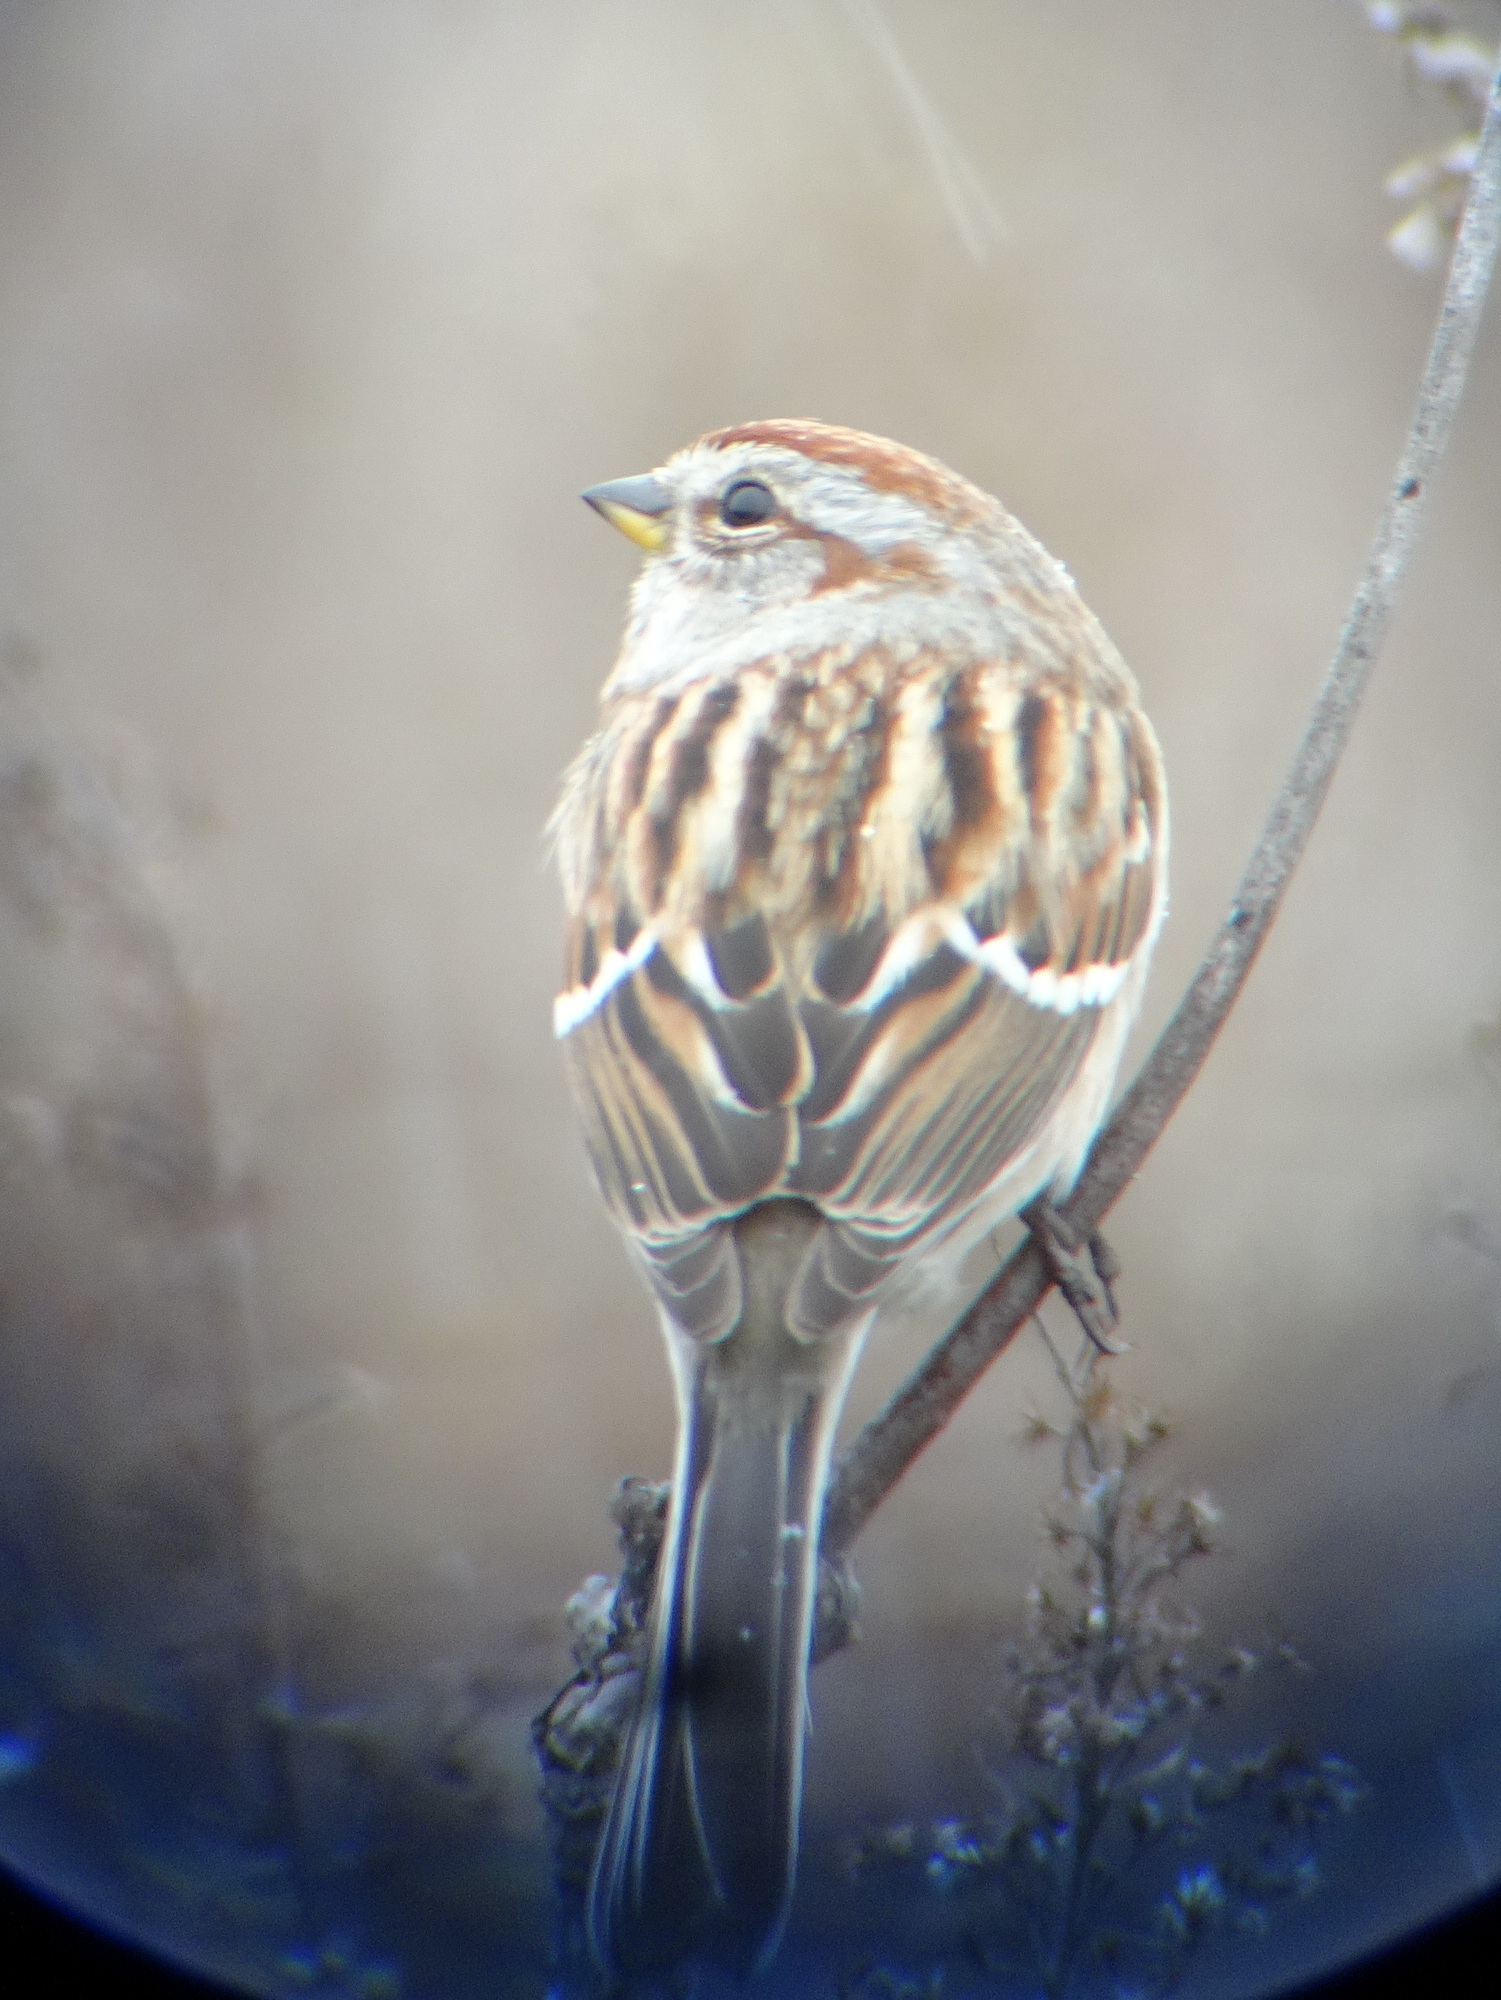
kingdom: Animalia
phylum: Chordata
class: Aves
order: Passeriformes
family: Passerellidae
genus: Spizelloides
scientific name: Spizelloides arborea
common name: American tree sparrow
